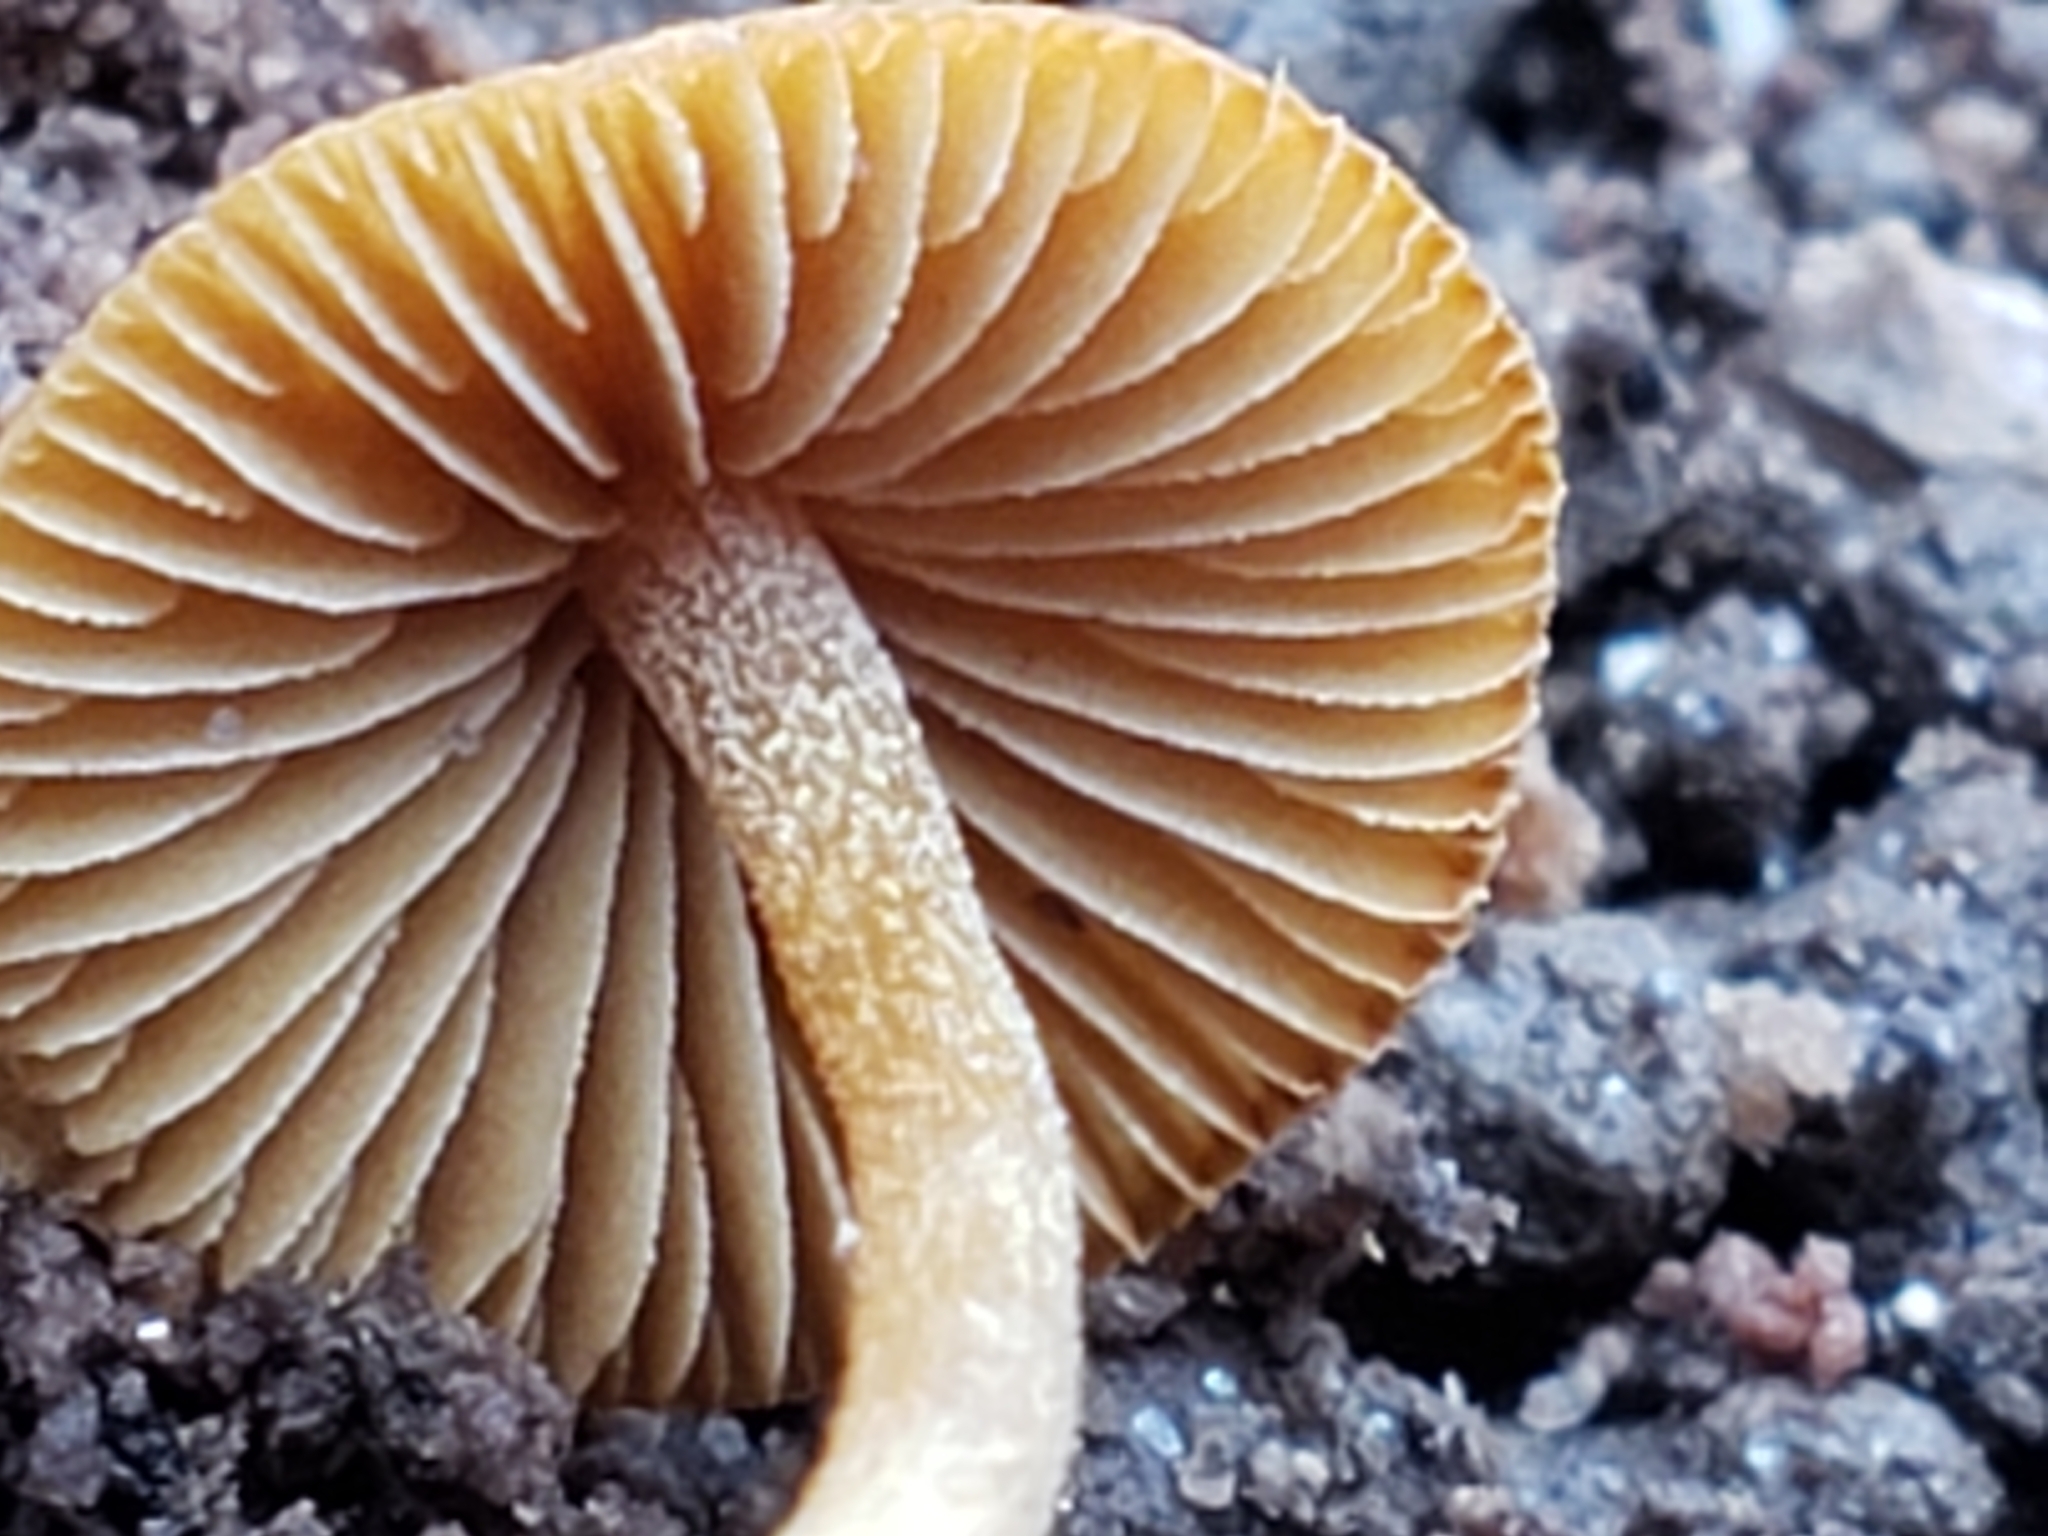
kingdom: Fungi
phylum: Basidiomycota
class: Agaricomycetes
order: Agaricales
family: Bolbitiaceae
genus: Conocybe
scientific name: Conocybe rugosa
